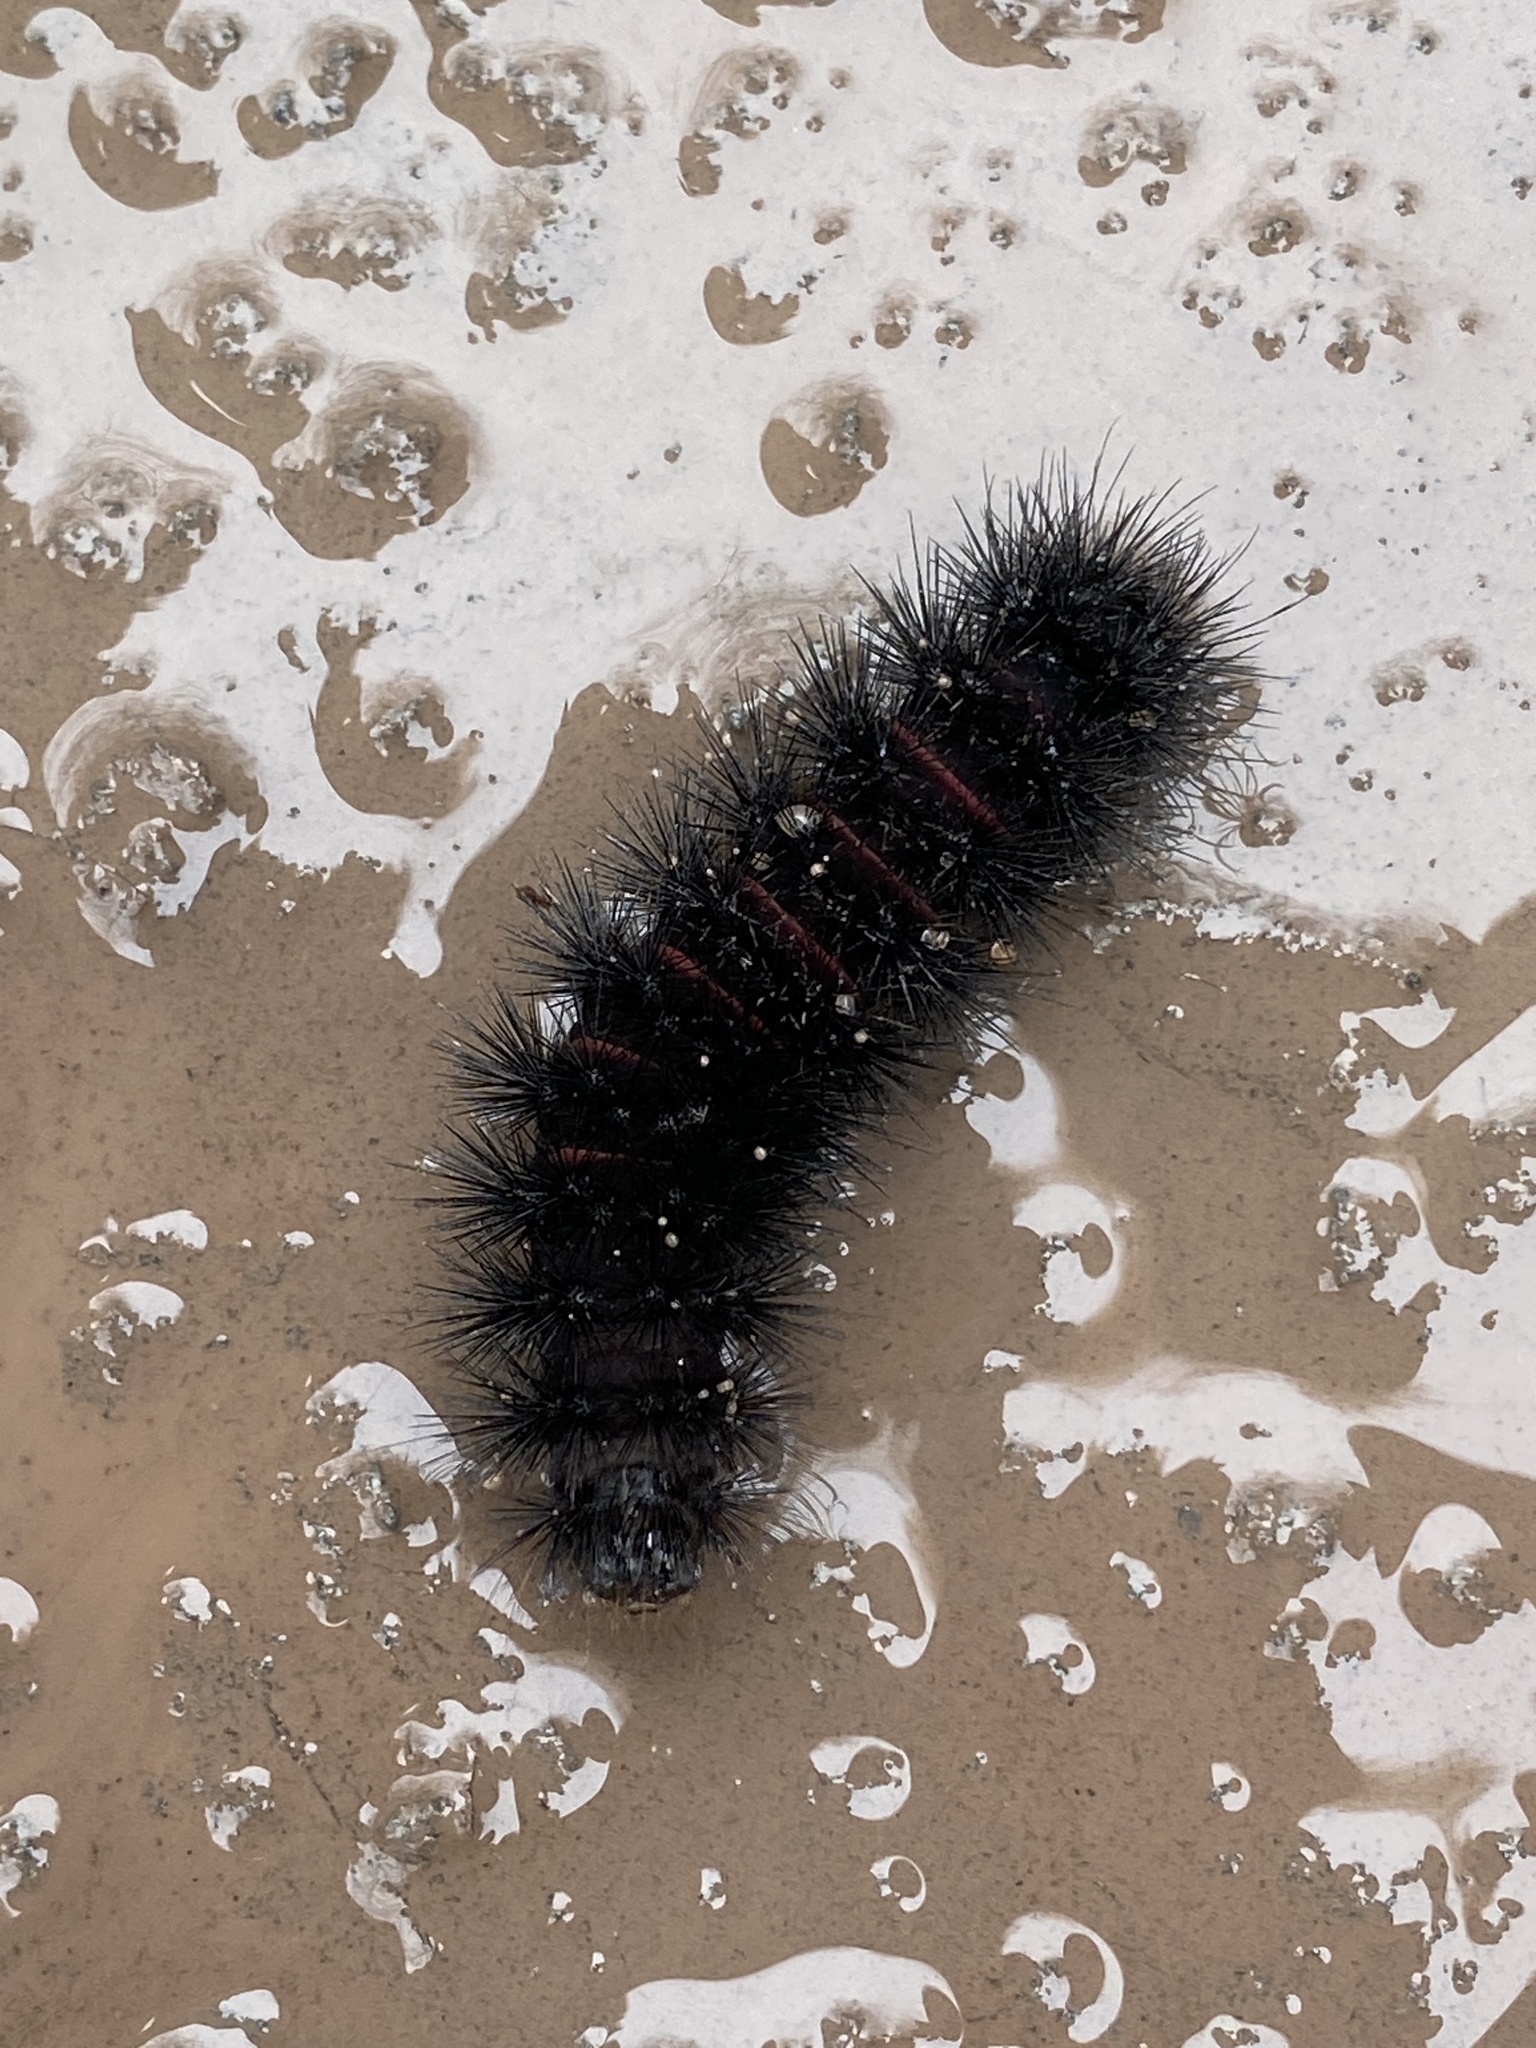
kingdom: Animalia
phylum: Arthropoda
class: Insecta
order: Lepidoptera
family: Erebidae
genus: Hypercompe
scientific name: Hypercompe scribonia
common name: Giant leopard moth
